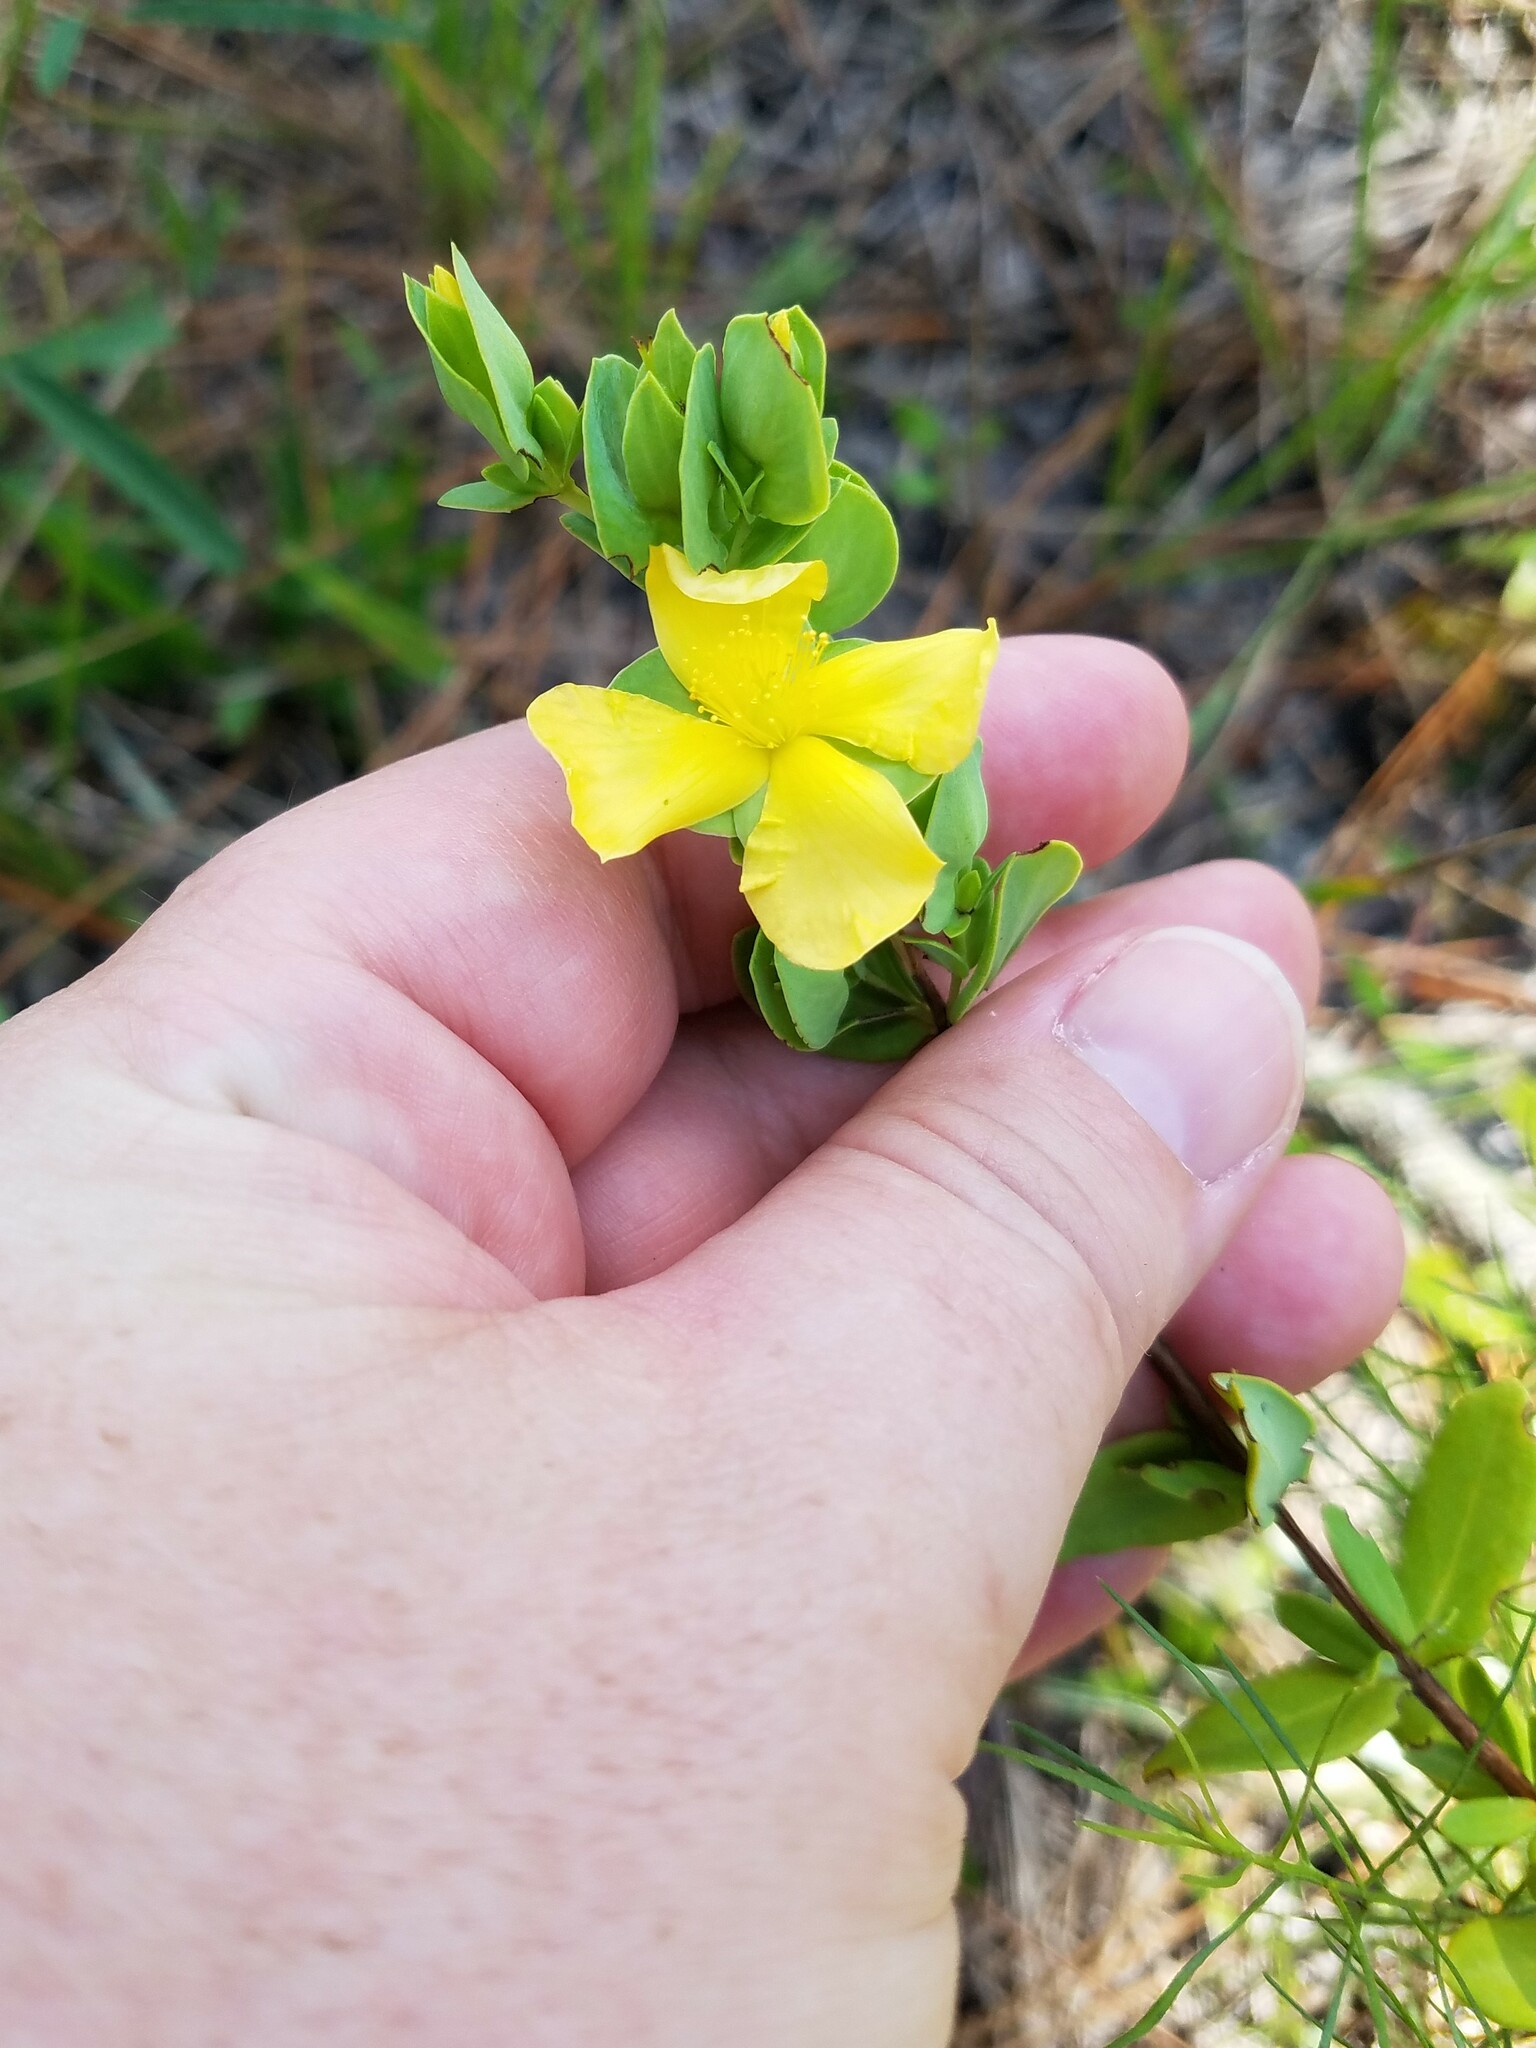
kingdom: Plantae
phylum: Tracheophyta
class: Magnoliopsida
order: Malpighiales
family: Hypericaceae
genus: Hypericum
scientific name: Hypericum crux-andreae
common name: St.-peter's-wort
